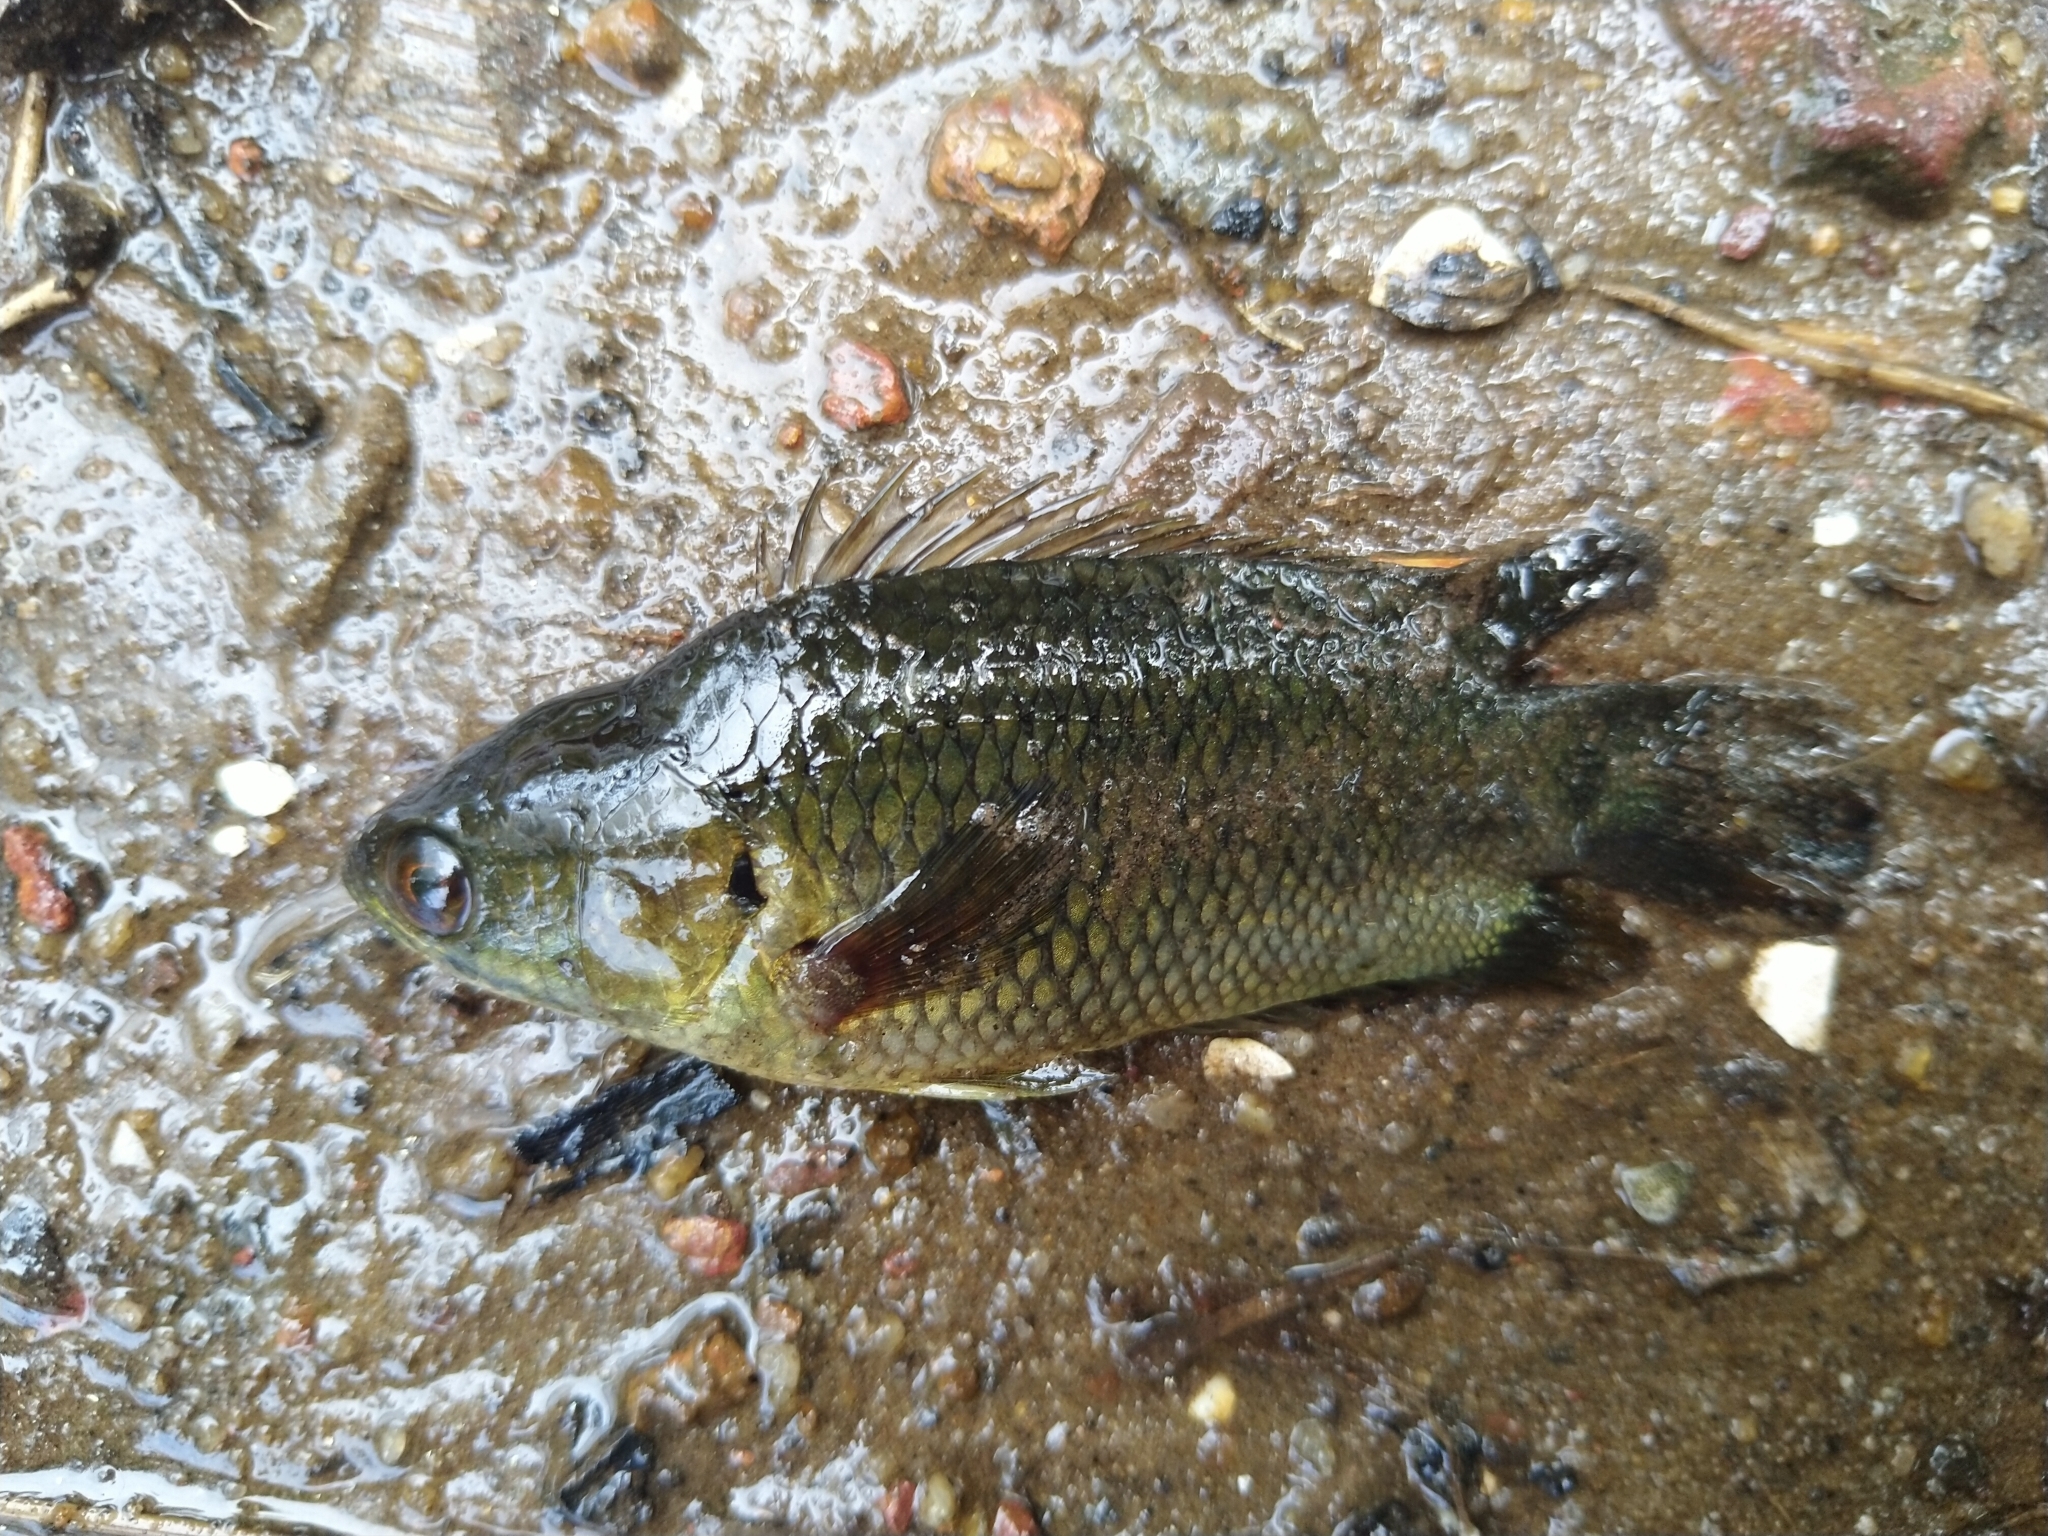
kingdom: Animalia
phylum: Chordata
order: Perciformes
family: Anabantidae
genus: Anabas
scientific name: Anabas testudineus
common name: Climbing perch
